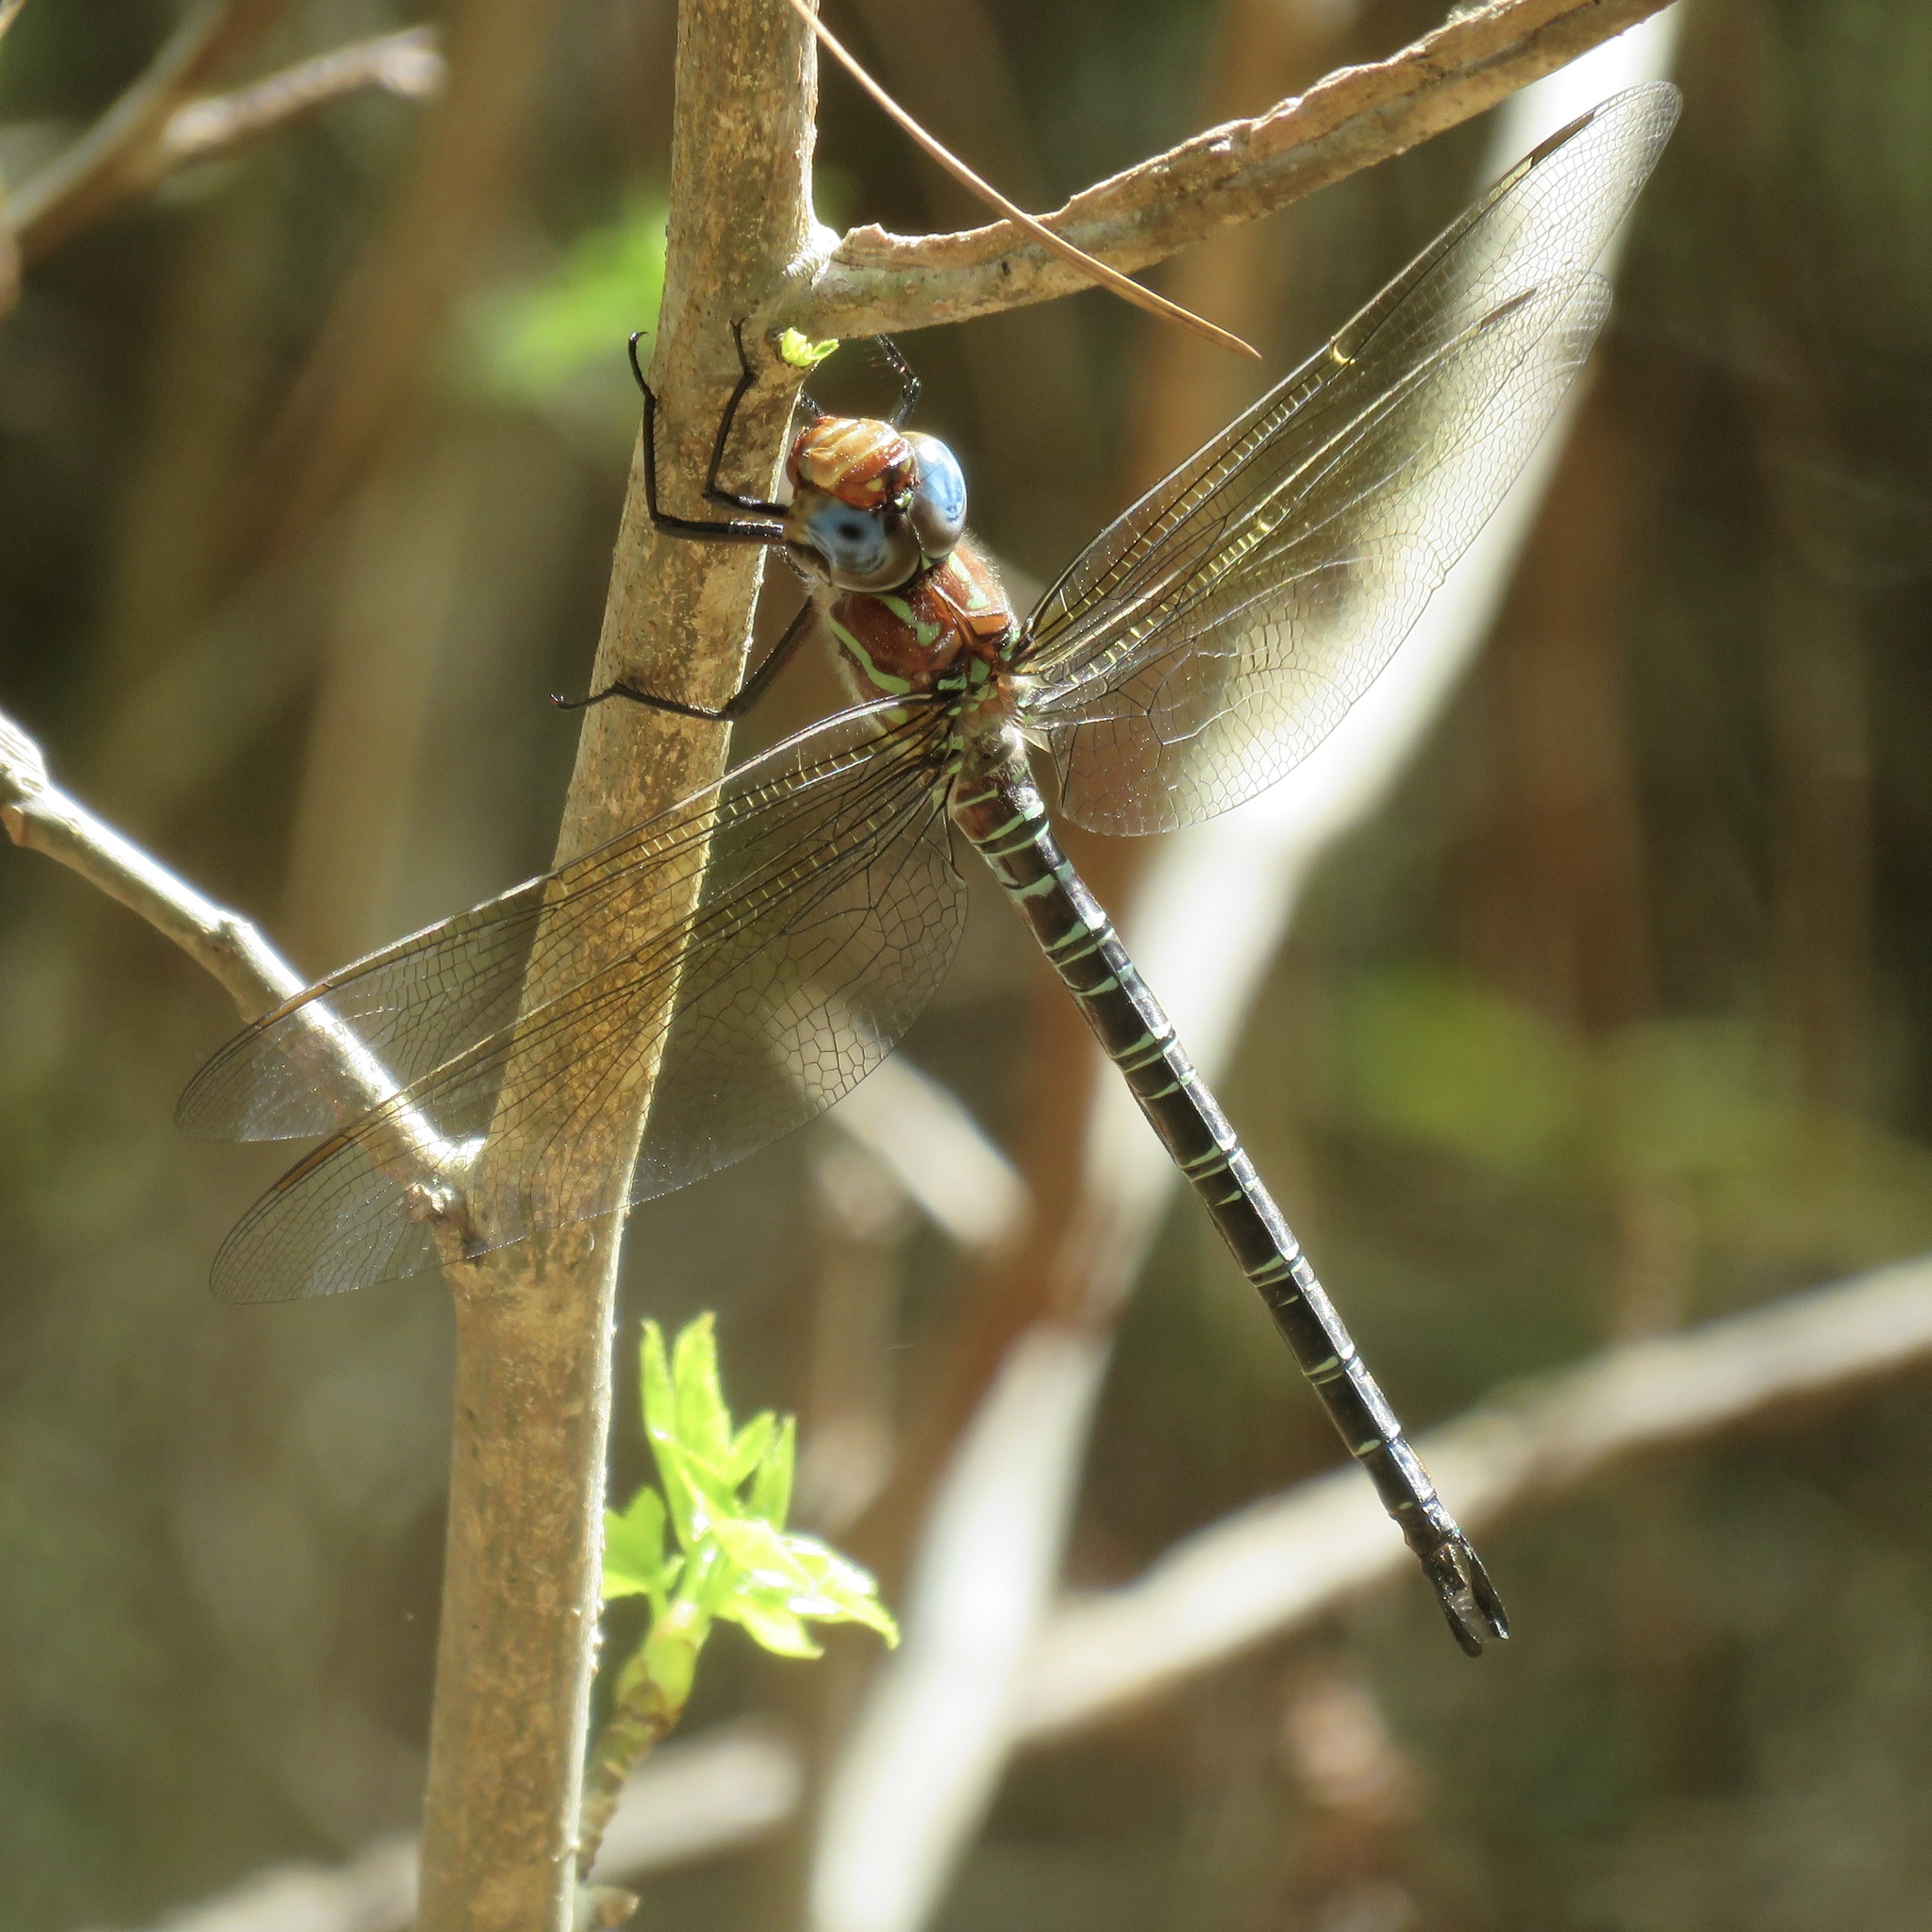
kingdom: Animalia
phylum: Arthropoda
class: Insecta
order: Odonata
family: Aeshnidae
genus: Epiaeschna
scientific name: Epiaeschna heros
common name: Swamp darner
